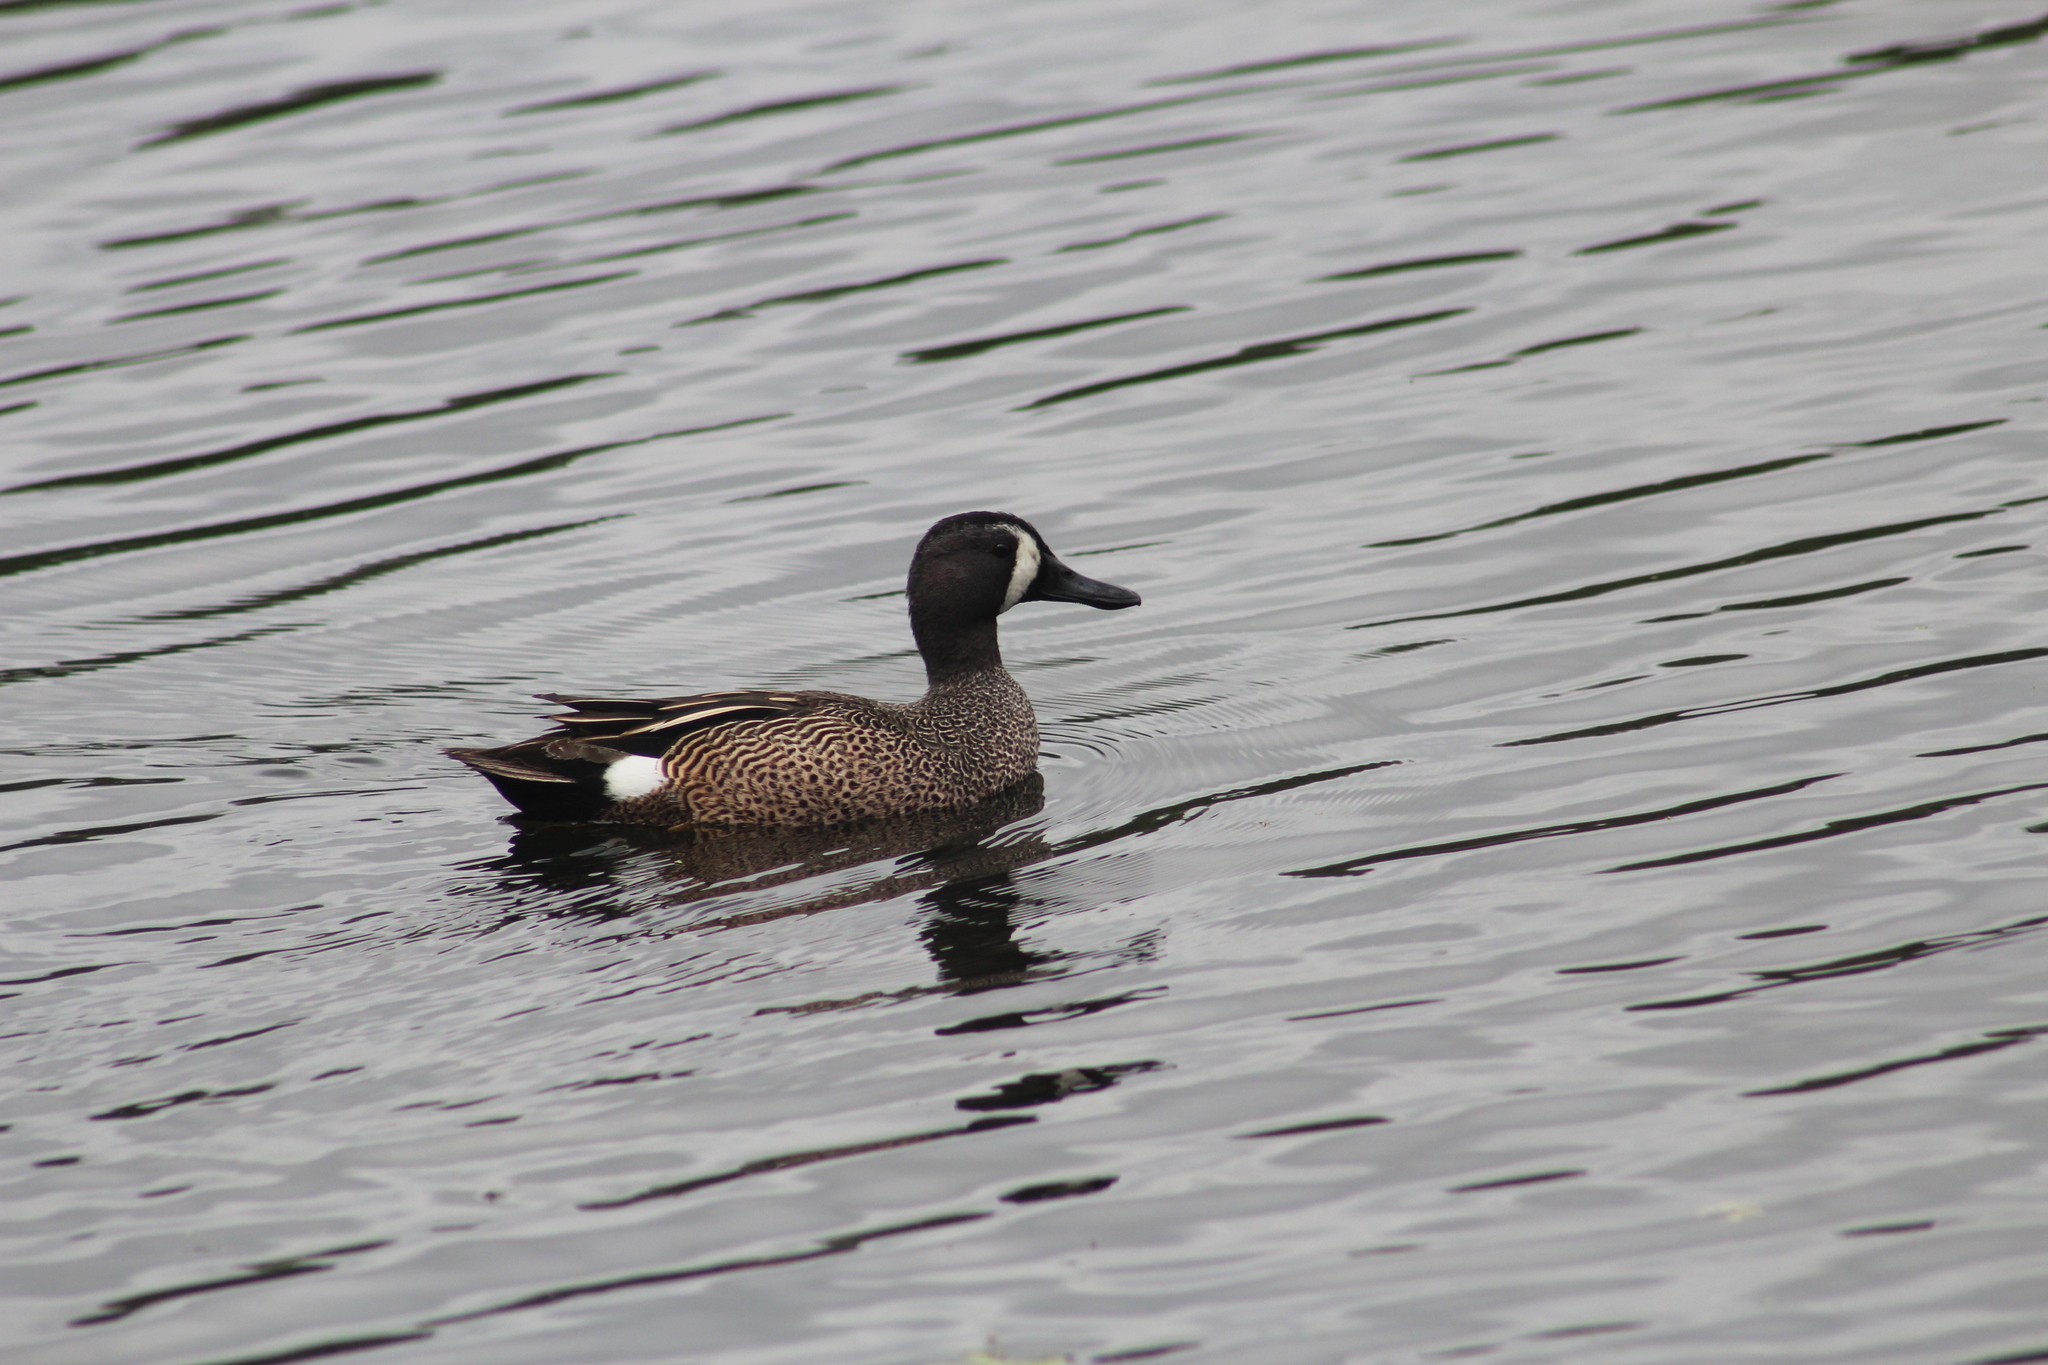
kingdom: Animalia
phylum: Chordata
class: Aves
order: Anseriformes
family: Anatidae
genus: Spatula
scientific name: Spatula discors
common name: Blue-winged teal
